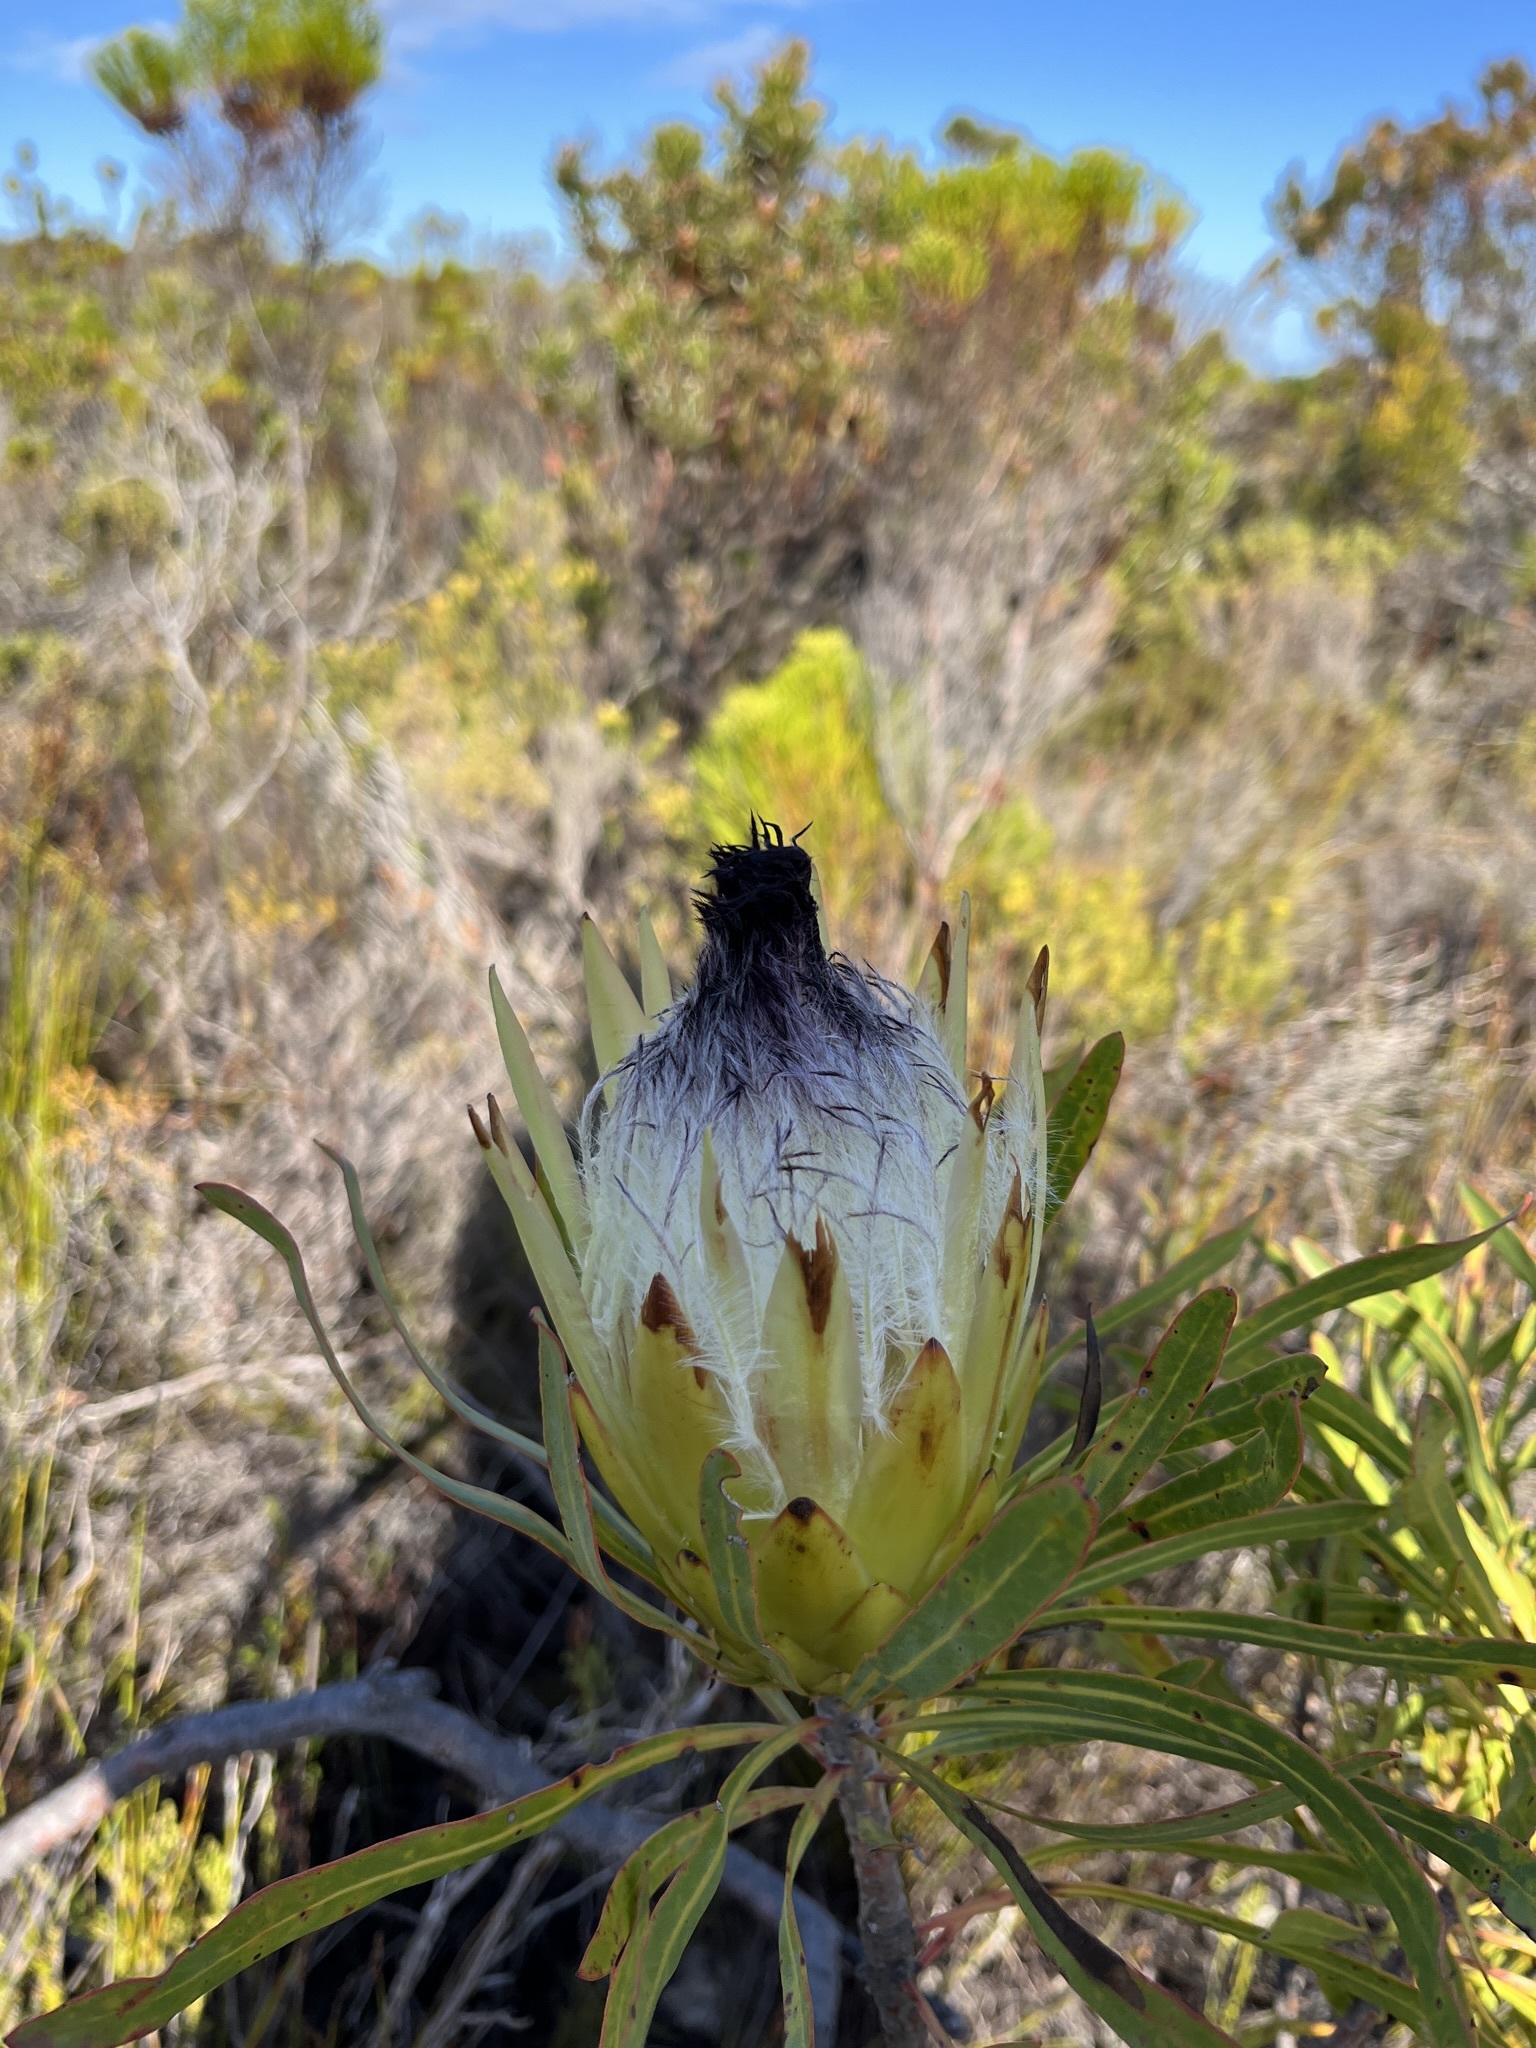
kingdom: Plantae
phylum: Tracheophyta
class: Magnoliopsida
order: Proteales
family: Proteaceae
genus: Protea
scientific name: Protea longifolia
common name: Long-leaf sugarbush
